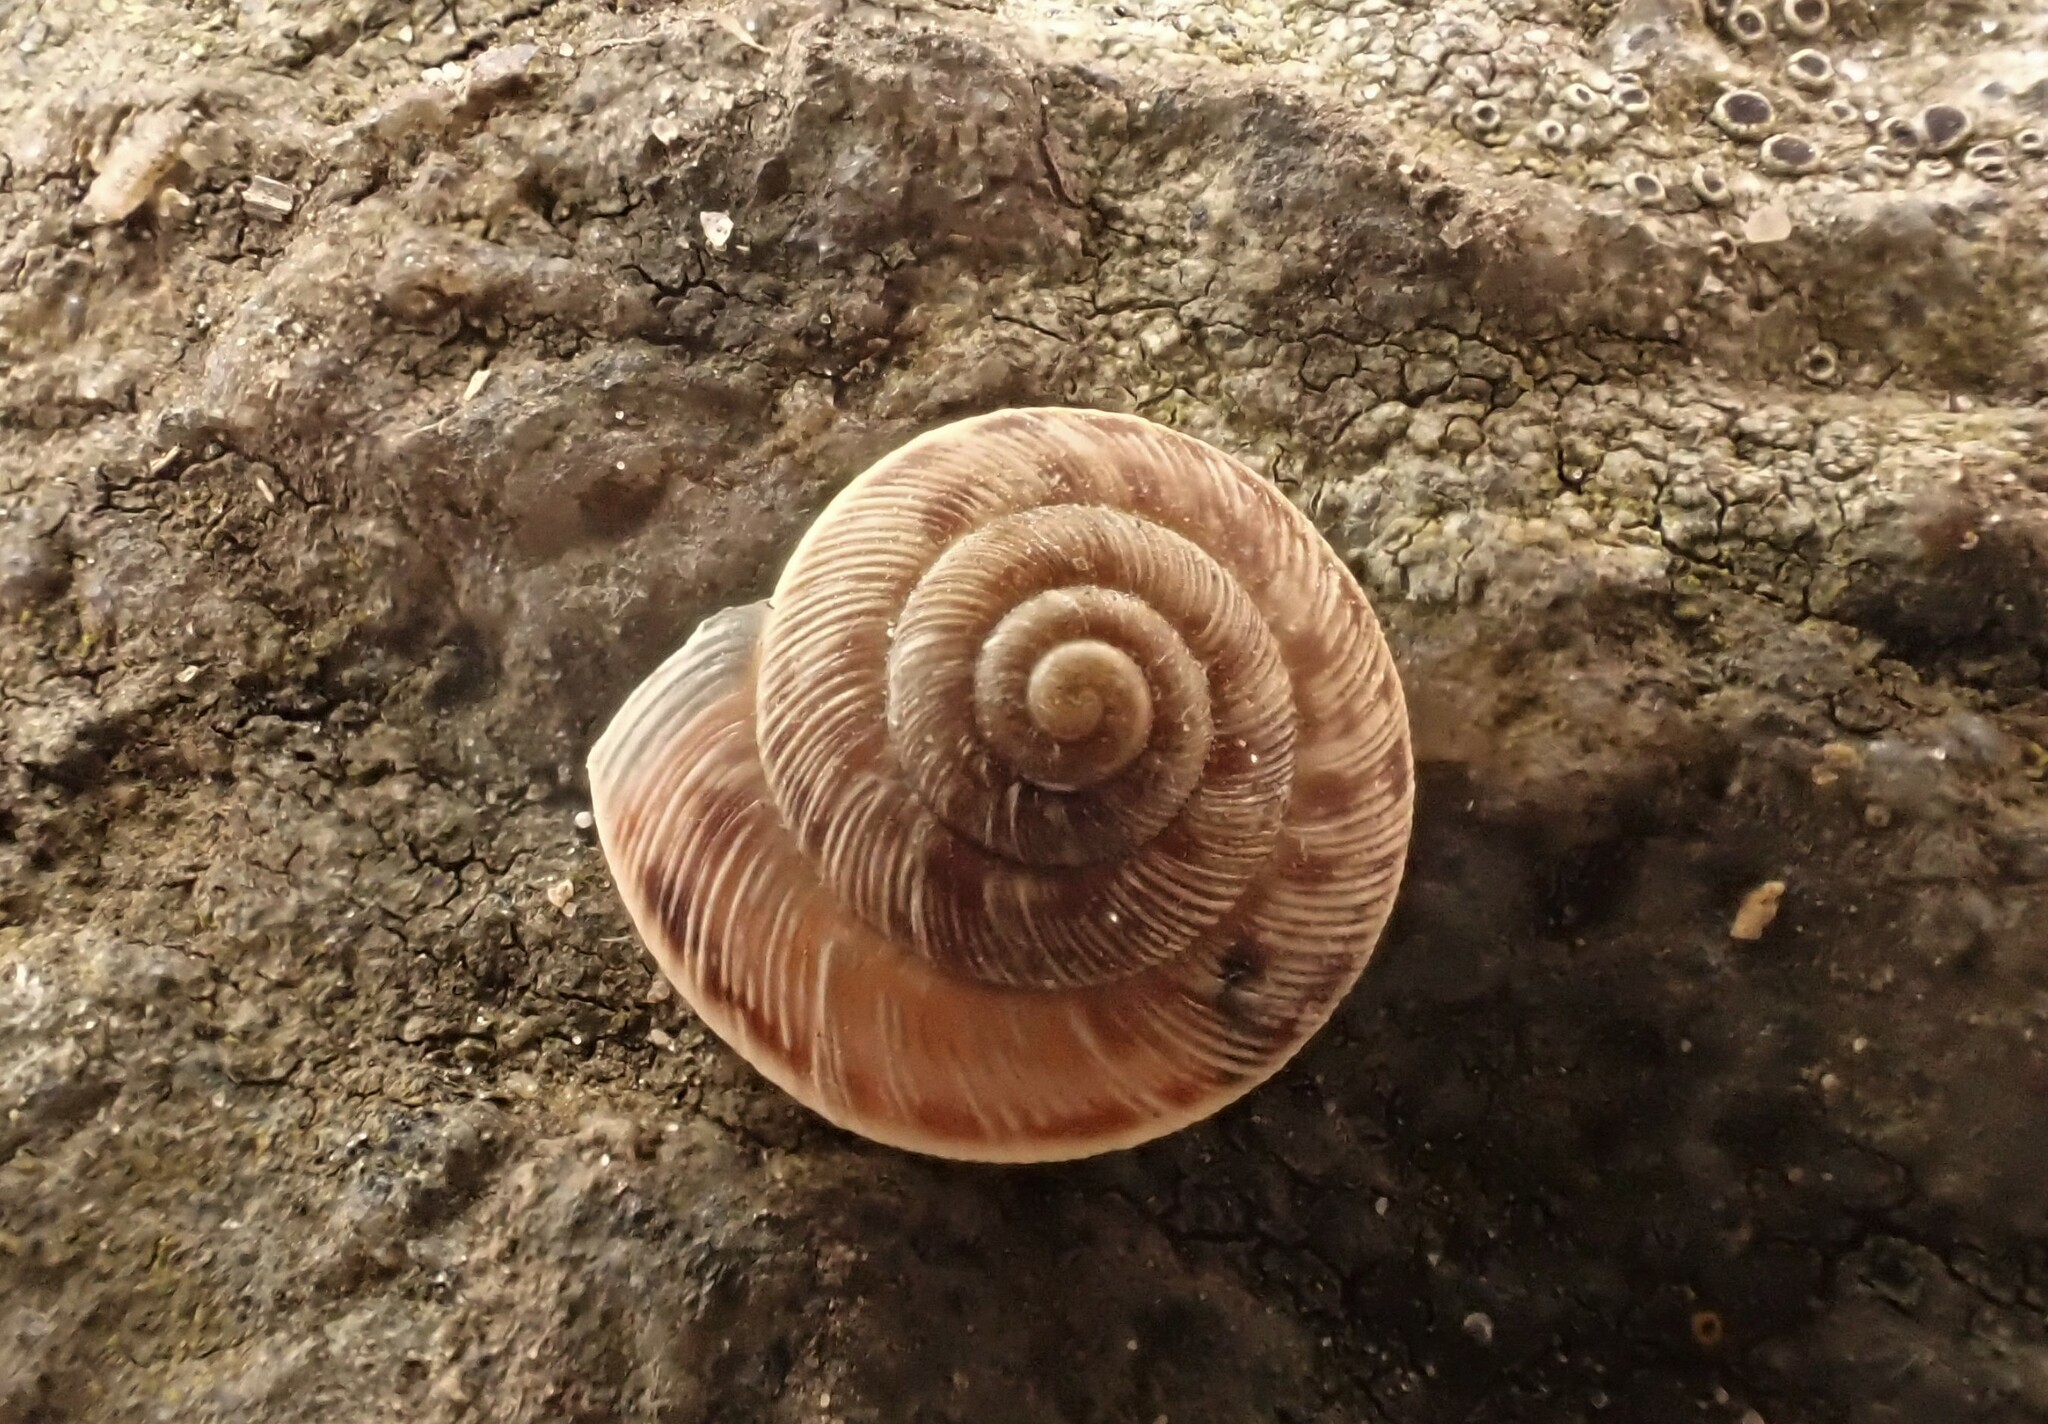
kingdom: Animalia
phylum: Mollusca
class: Gastropoda
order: Stylommatophora
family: Geomitridae
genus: Xeroplexa
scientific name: Xeroplexa intersecta
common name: Wrinkled snail
